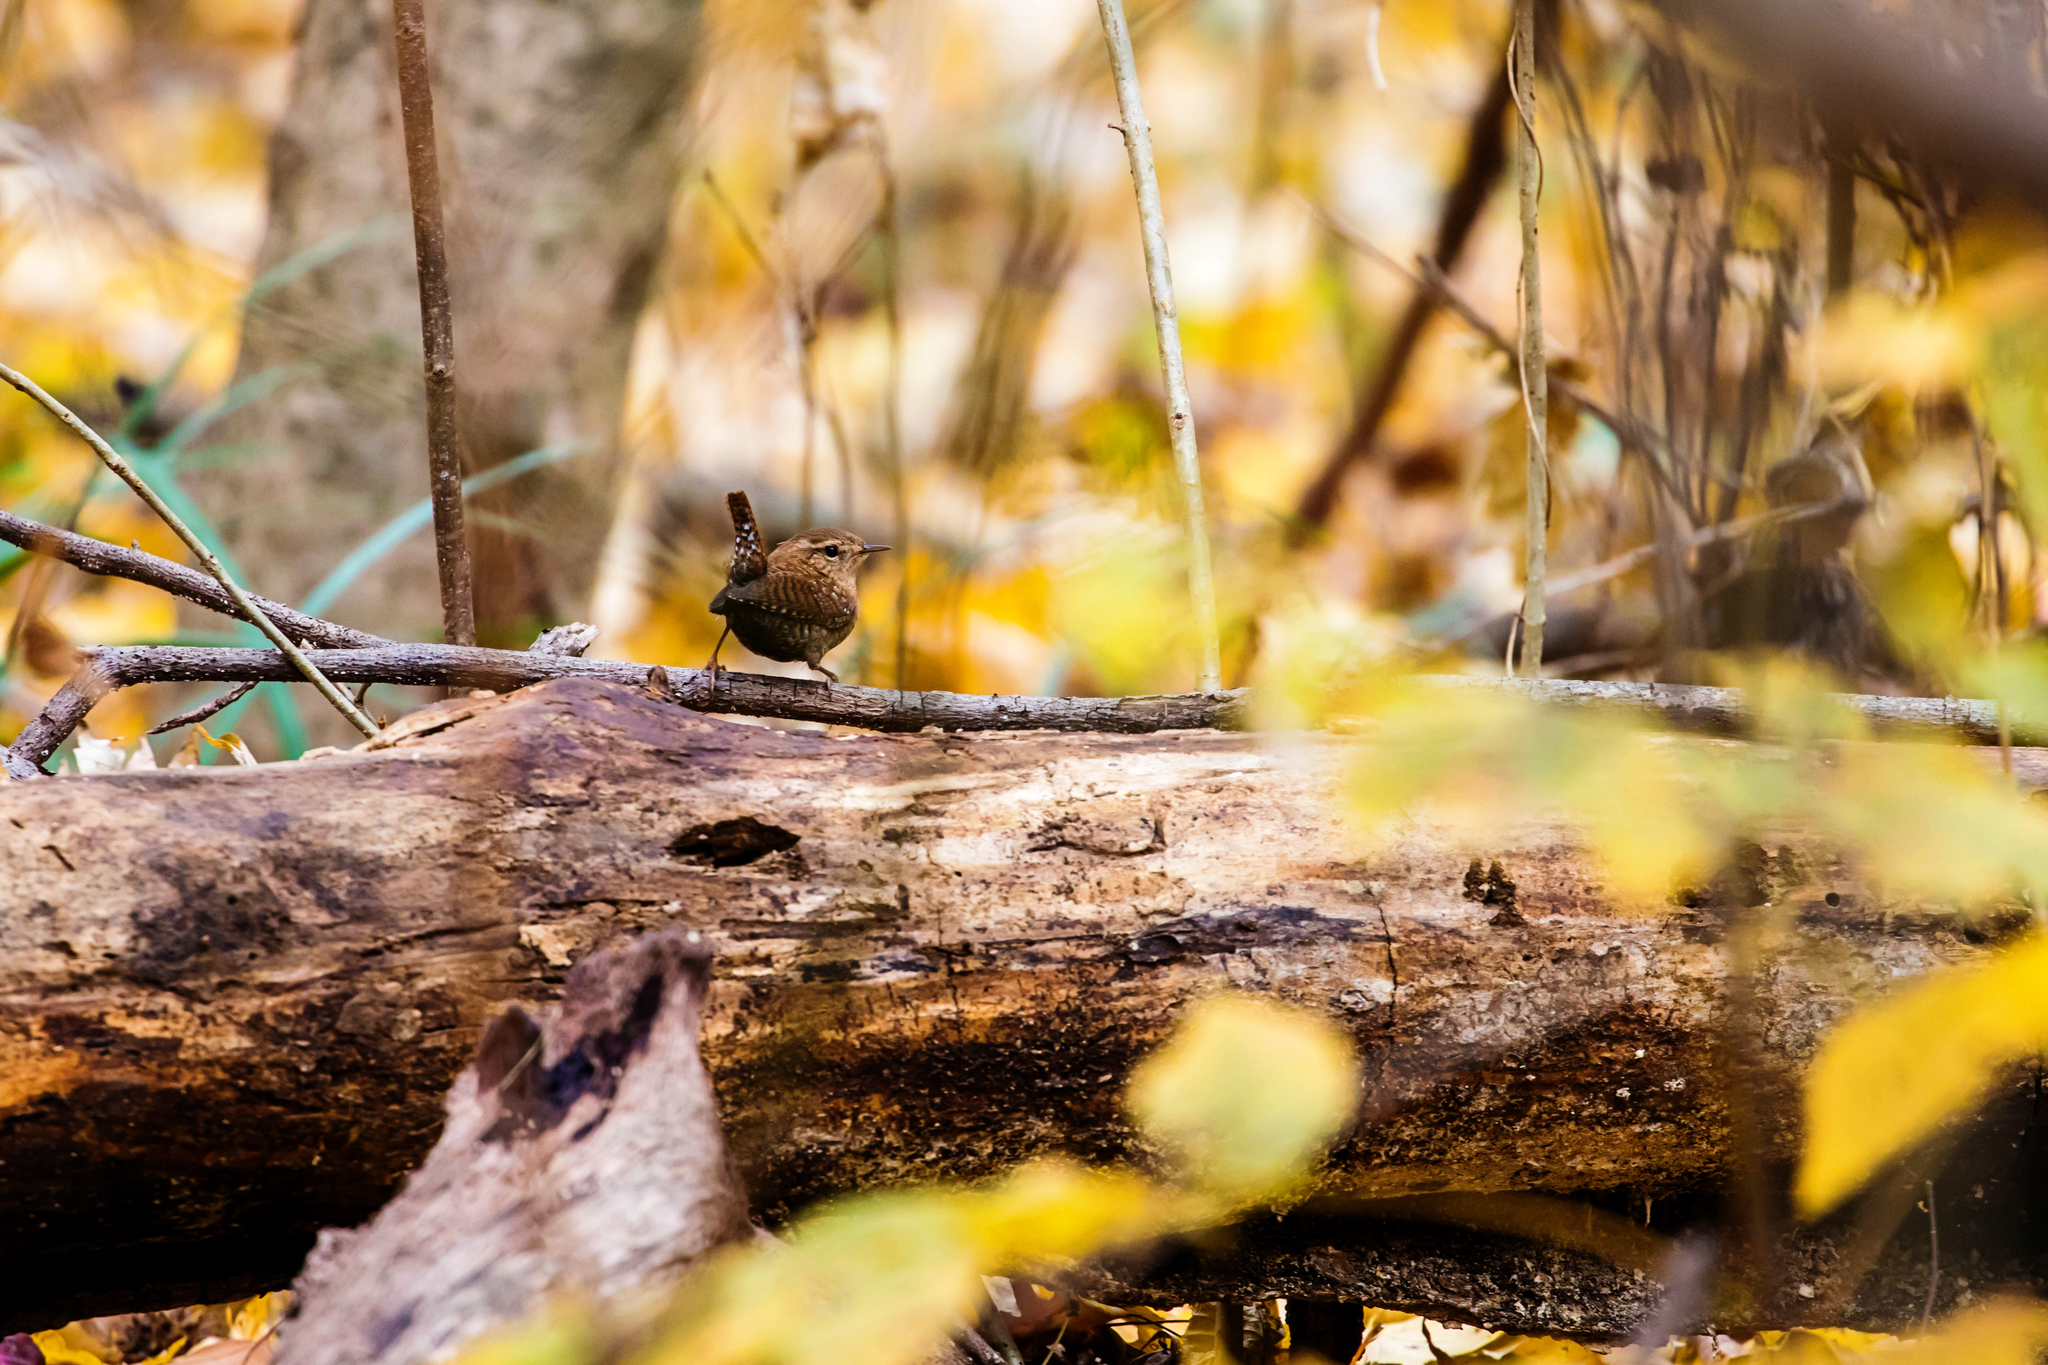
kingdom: Animalia
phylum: Chordata
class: Aves
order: Passeriformes
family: Troglodytidae
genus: Troglodytes
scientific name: Troglodytes hiemalis
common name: Winter wren
